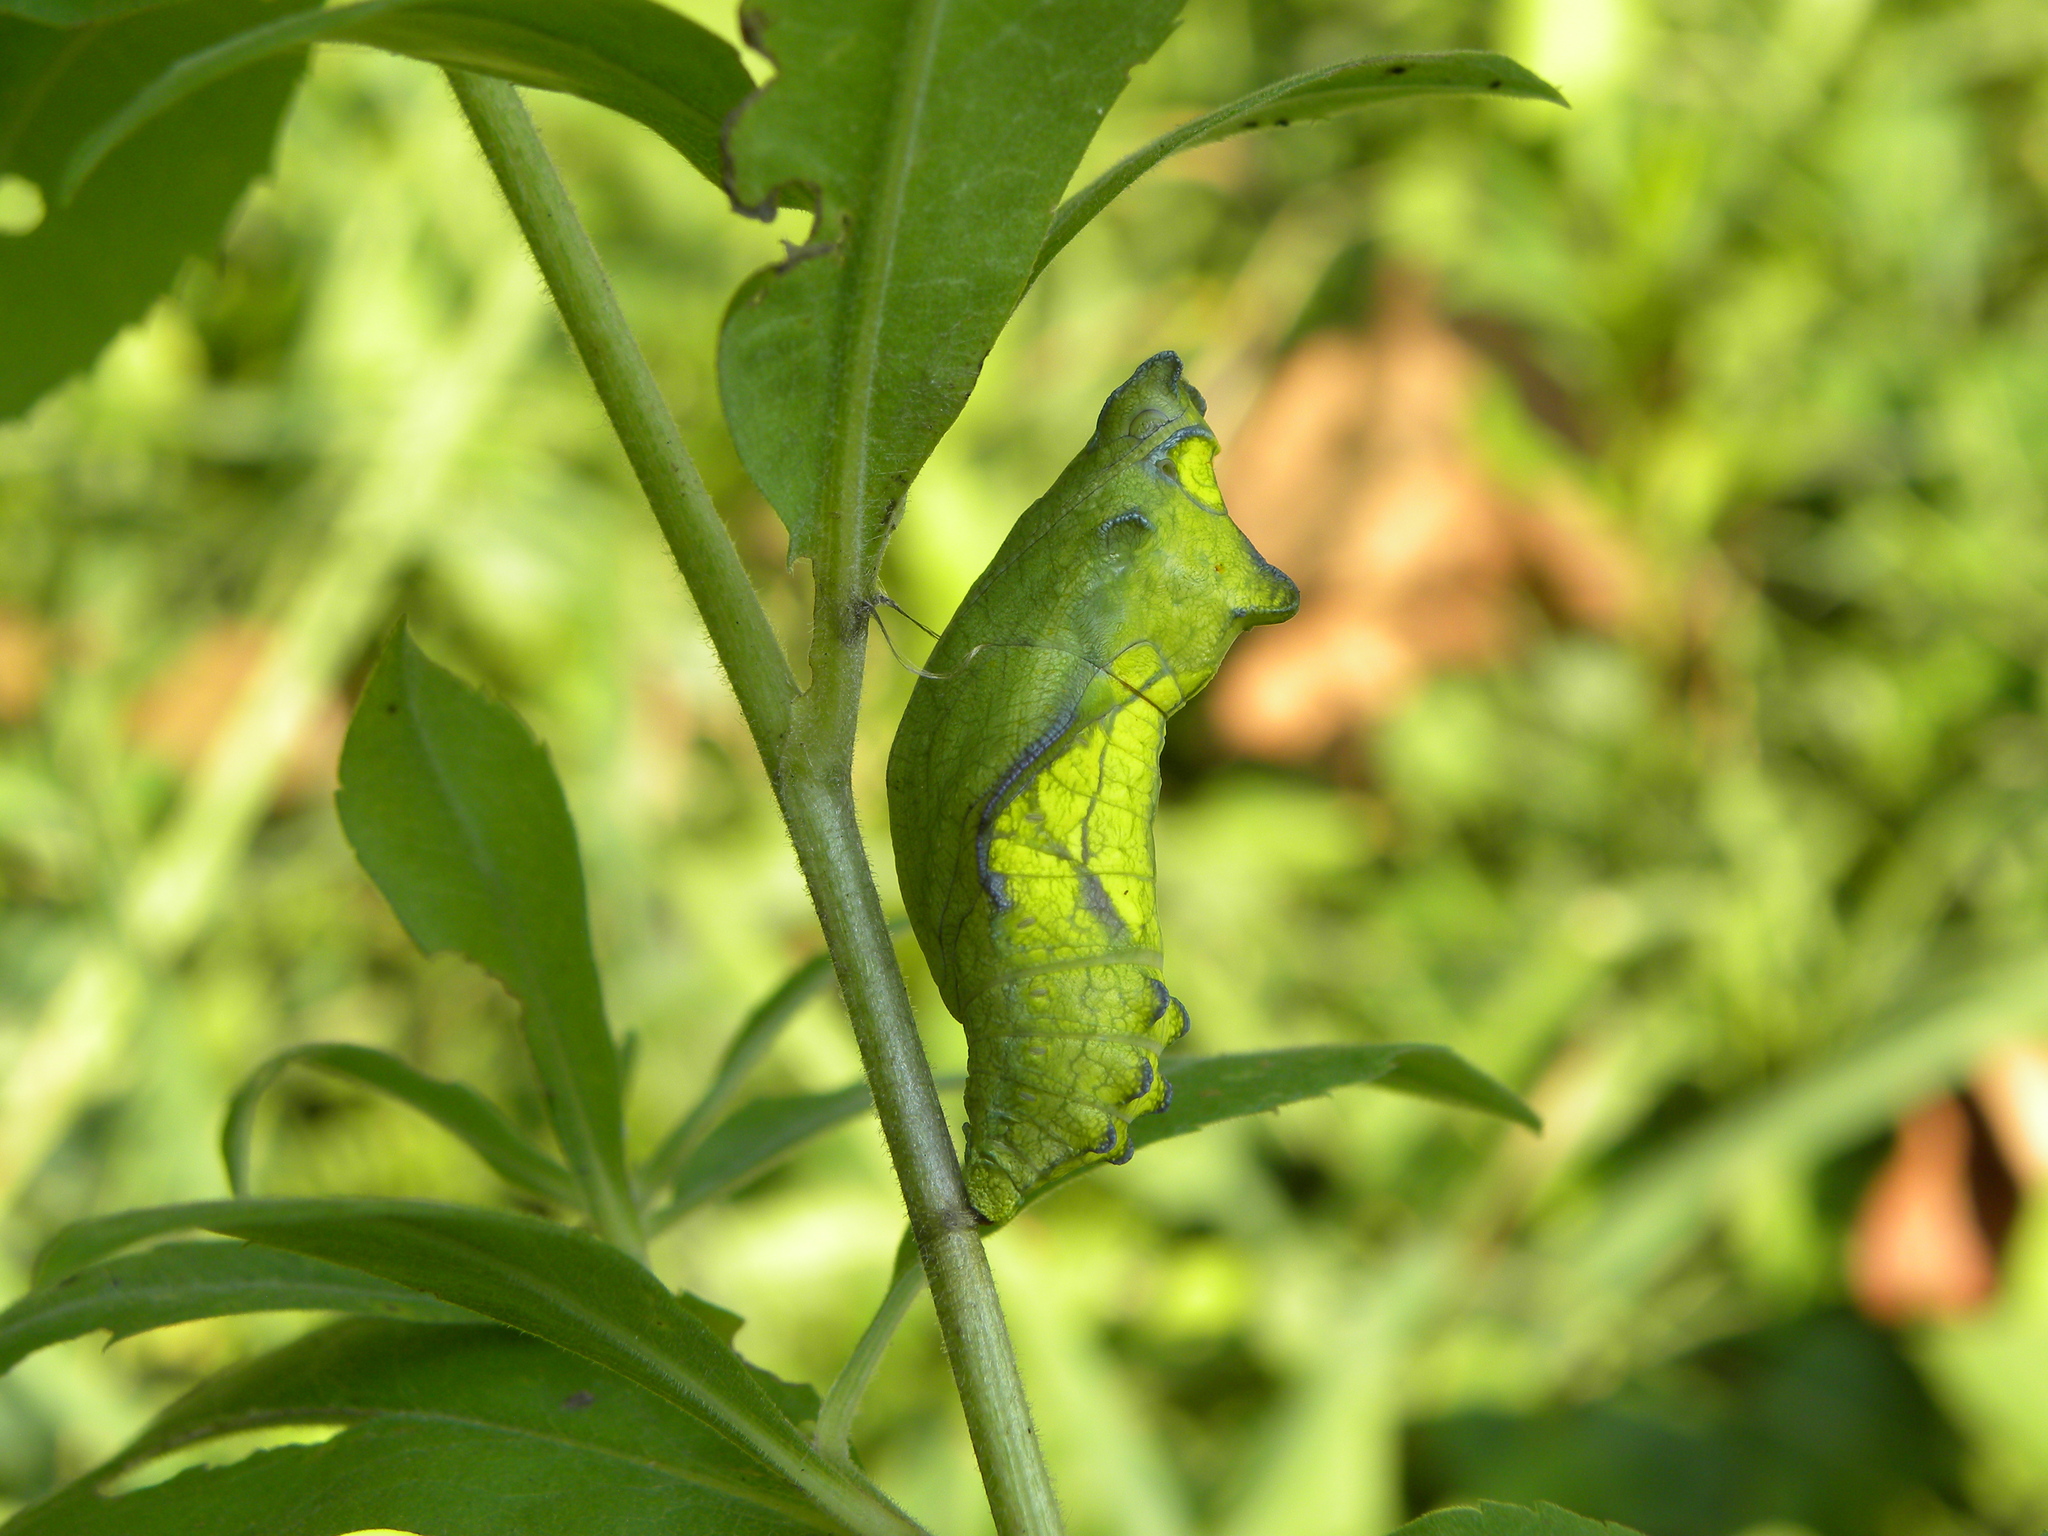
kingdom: Animalia
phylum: Arthropoda
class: Insecta
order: Lepidoptera
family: Papilionidae
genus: Battus
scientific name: Battus philenor
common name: Pipevine swallowtail
